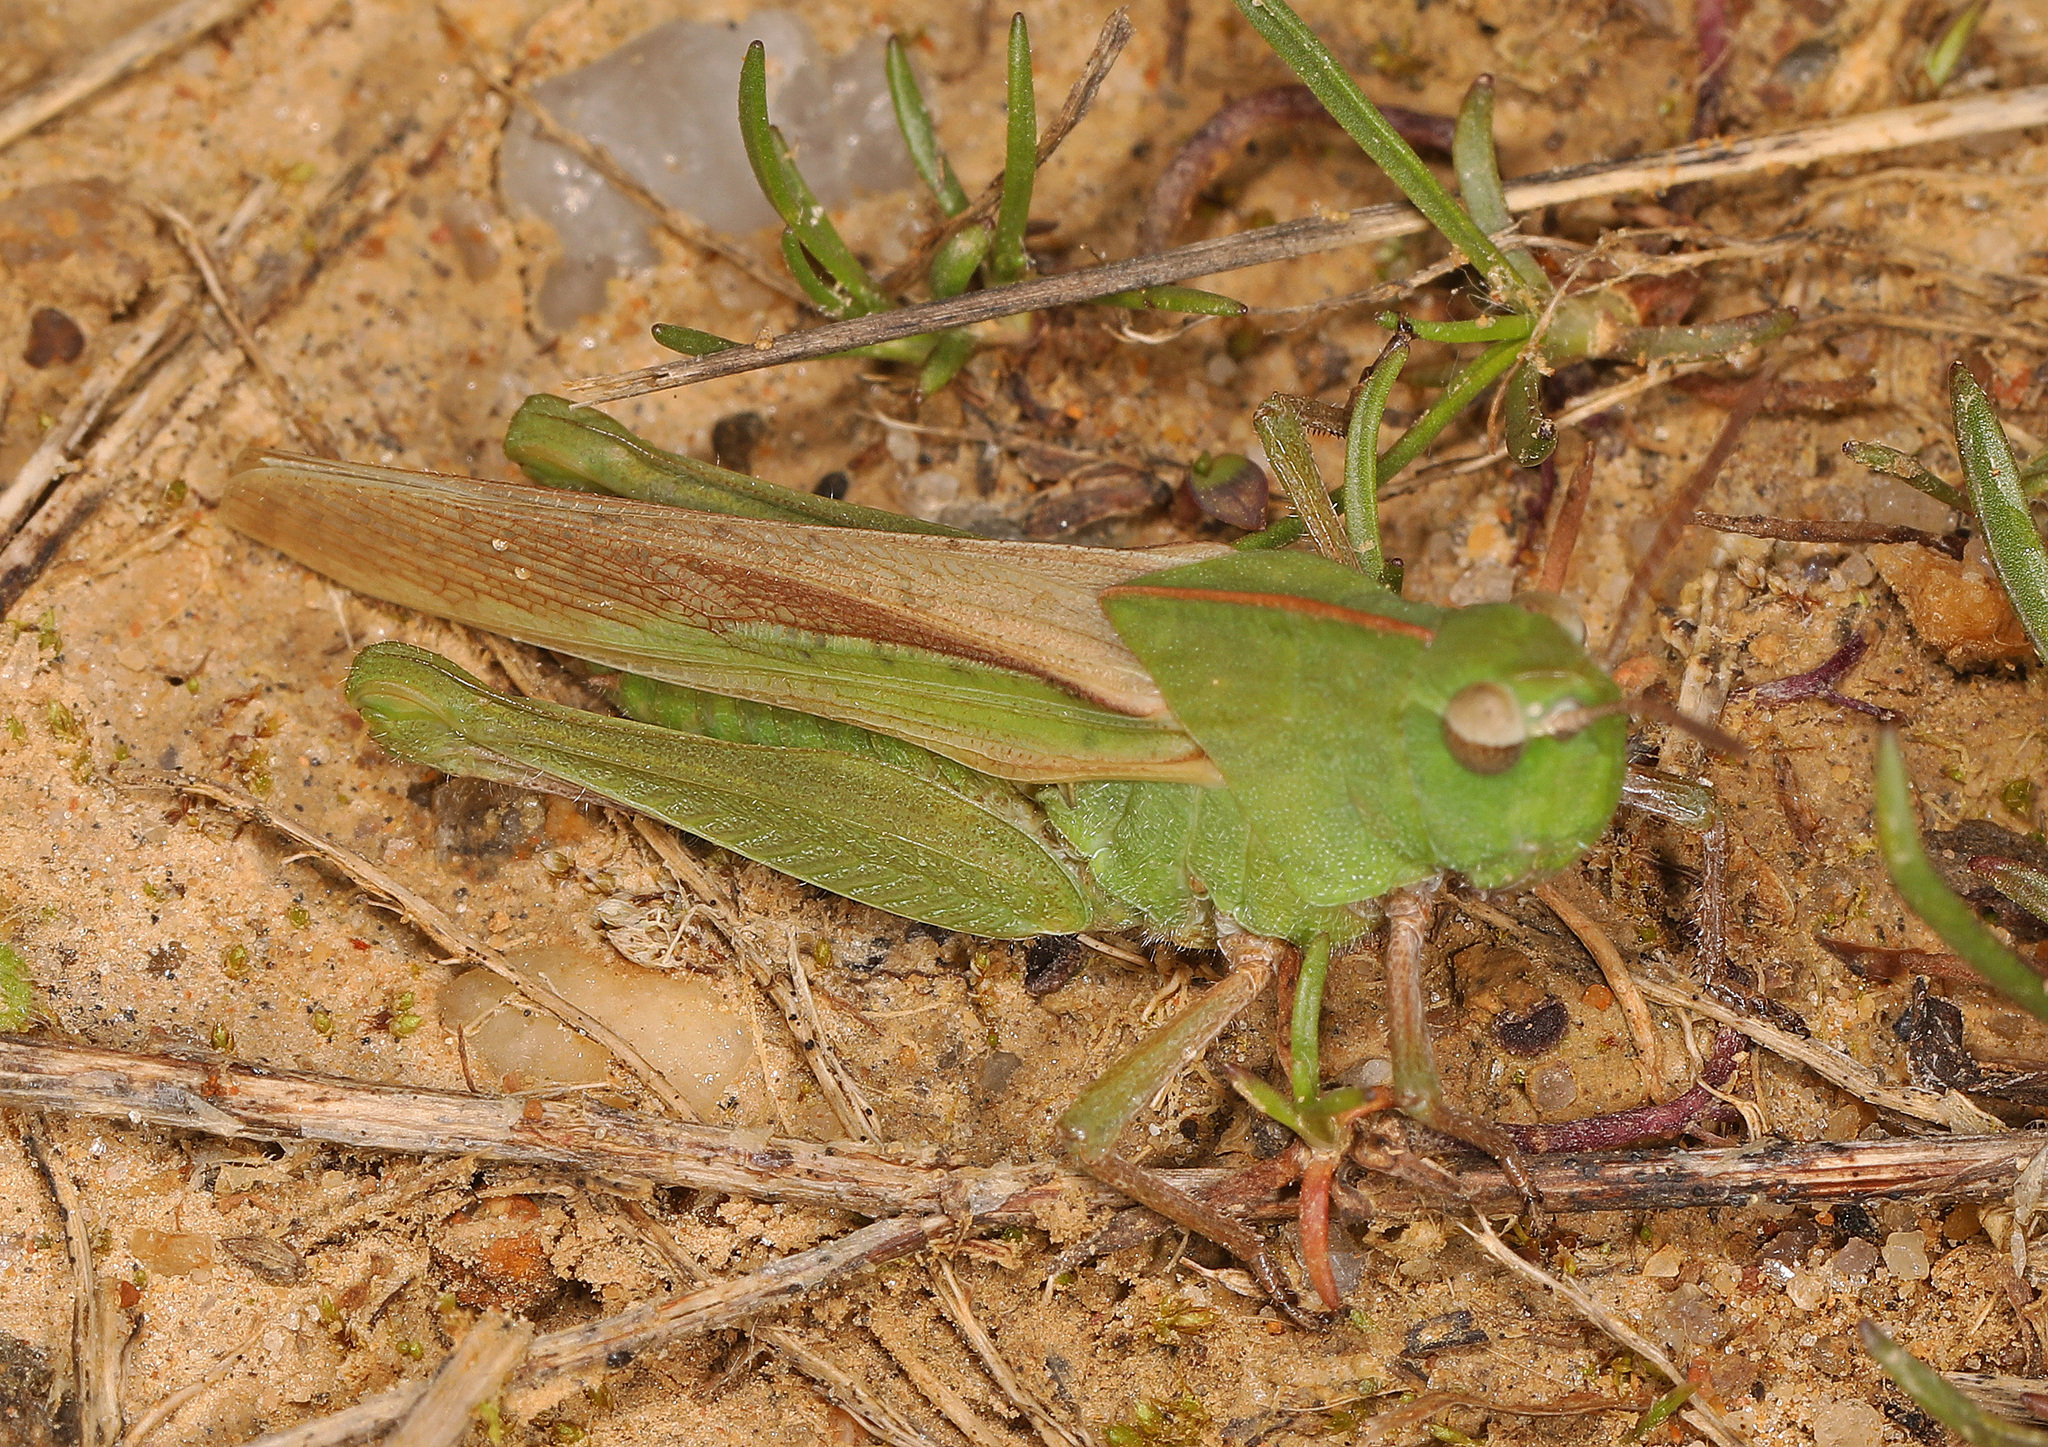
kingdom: Animalia
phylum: Arthropoda
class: Insecta
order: Orthoptera
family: Acrididae
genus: Chortophaga
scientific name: Chortophaga viridifasciata
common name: Green-striped grasshopper
